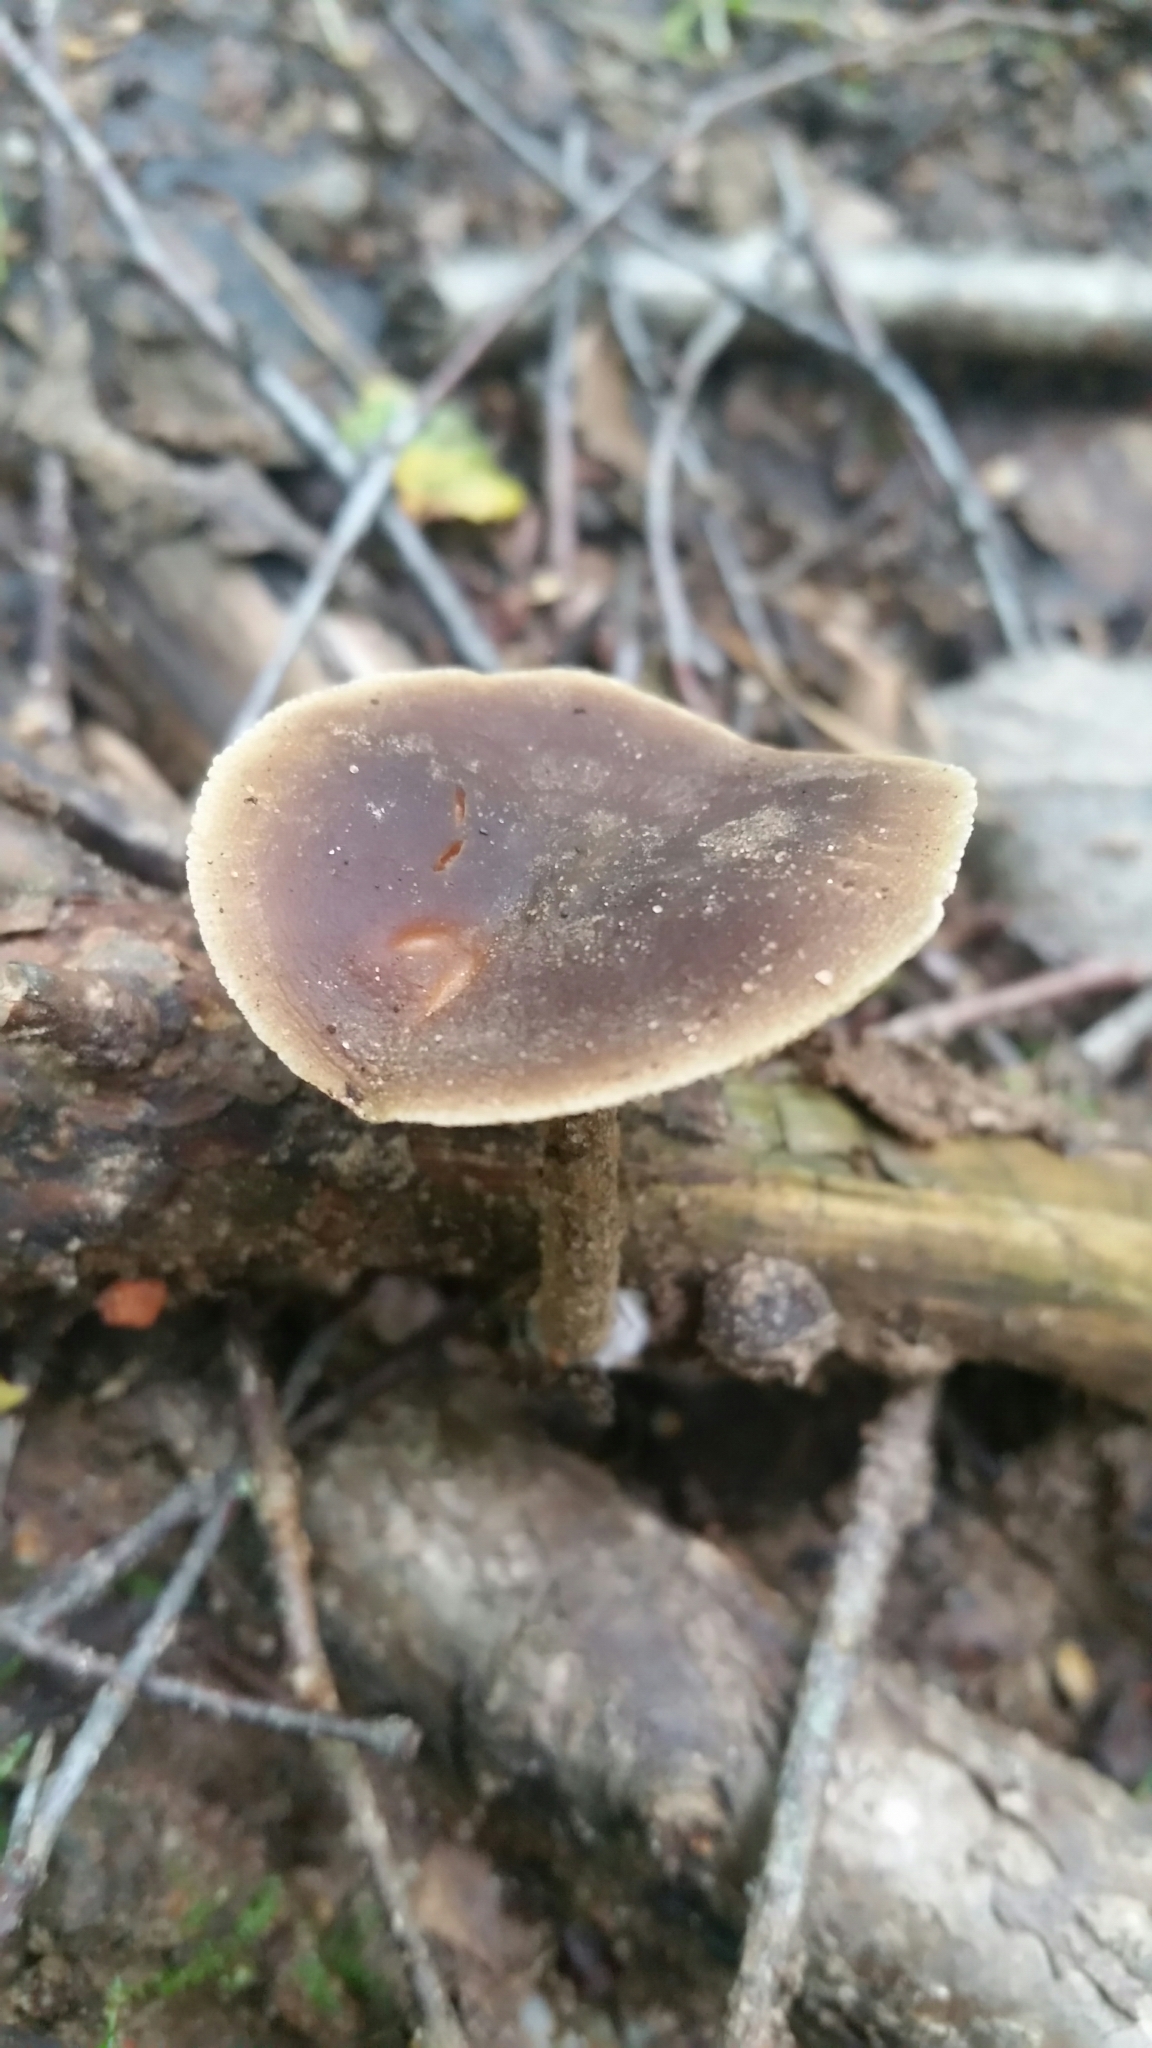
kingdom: Fungi
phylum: Basidiomycota
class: Agaricomycetes
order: Agaricales
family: Crepidotaceae
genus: Simocybe
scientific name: Simocybe centunculus
